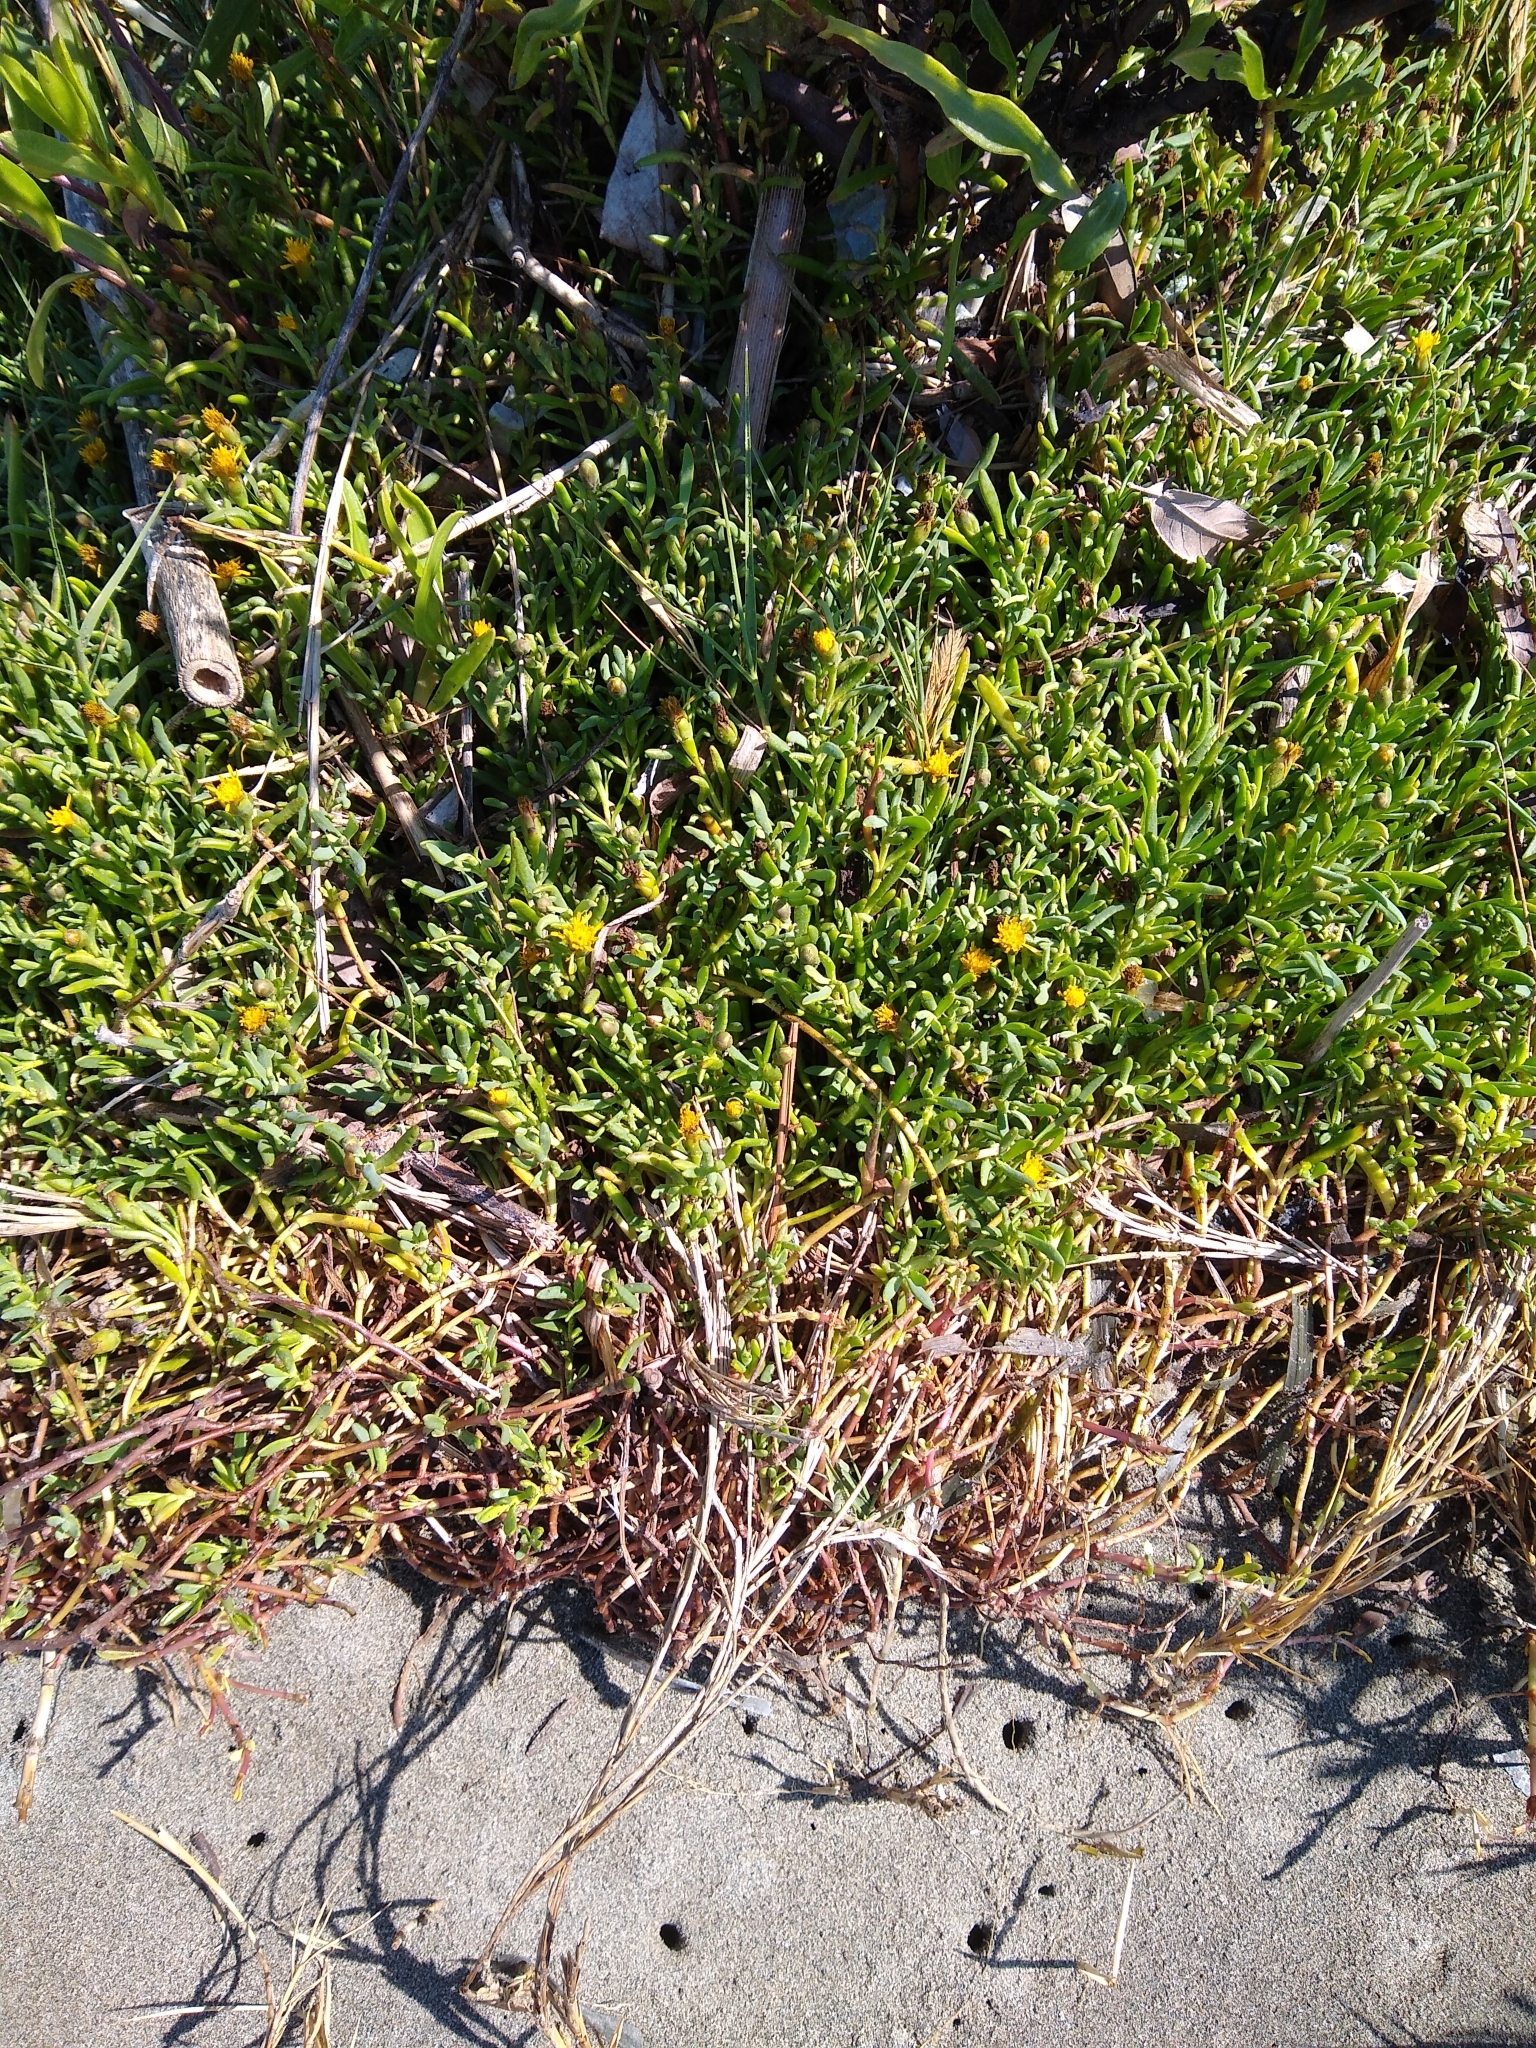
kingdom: Plantae
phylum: Tracheophyta
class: Magnoliopsida
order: Asterales
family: Asteraceae
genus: Jaumea
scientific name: Jaumea carnosa
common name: Fleshy jaumea
